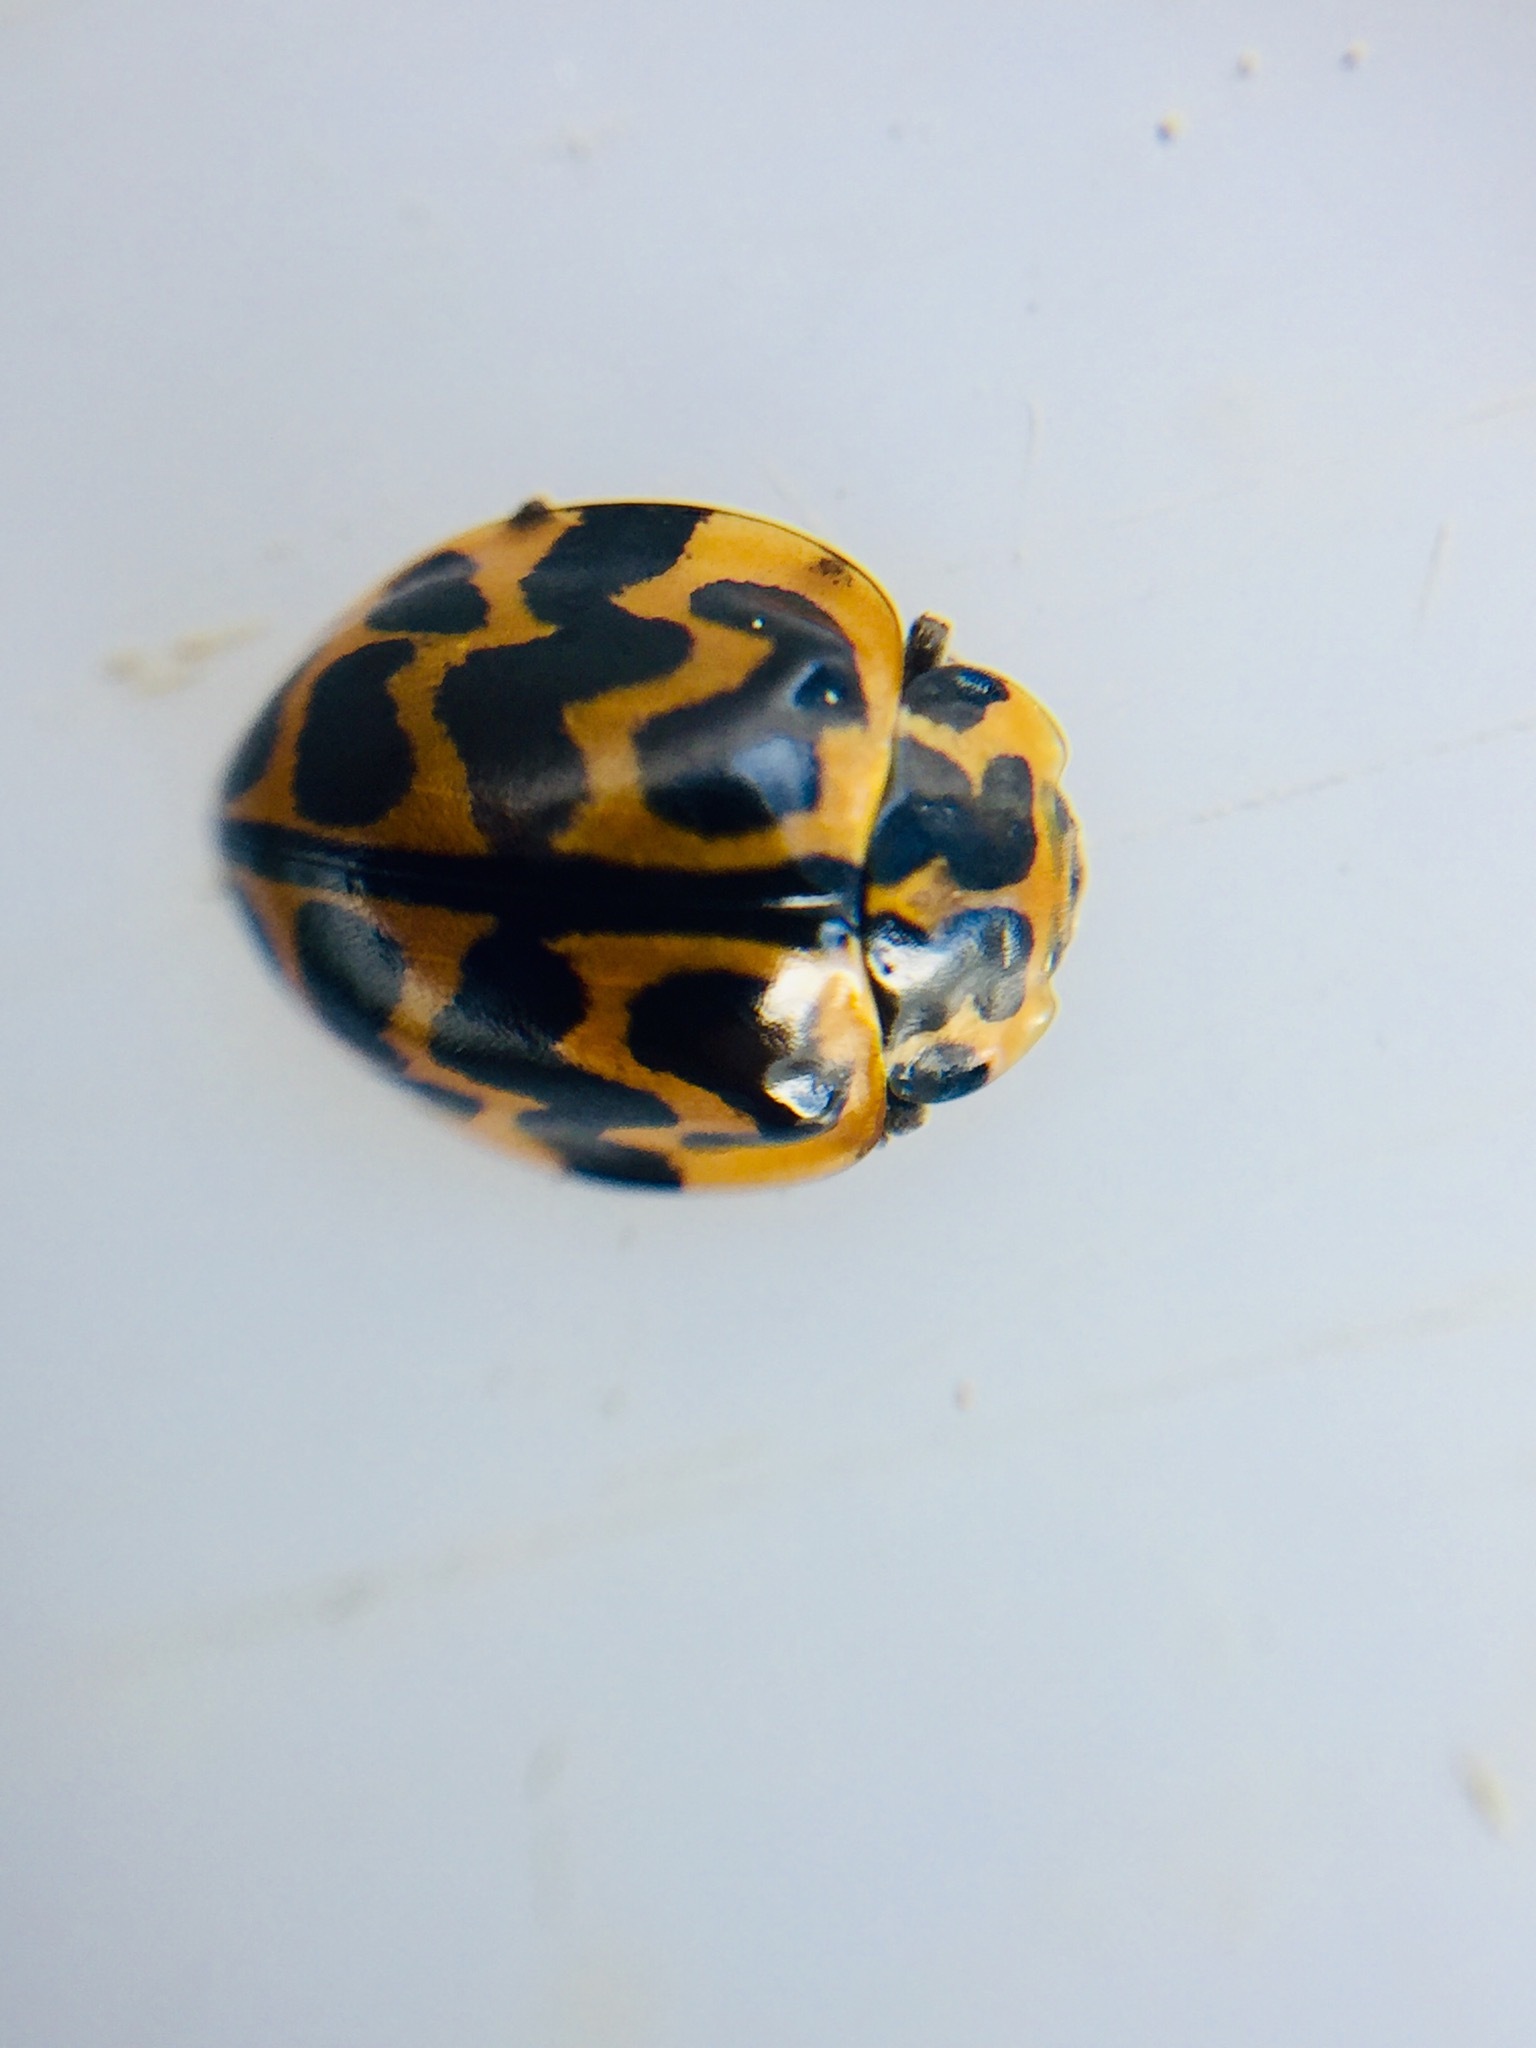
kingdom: Animalia
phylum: Arthropoda
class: Insecta
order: Coleoptera
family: Coccinellidae
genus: Cleobora
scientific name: Cleobora
